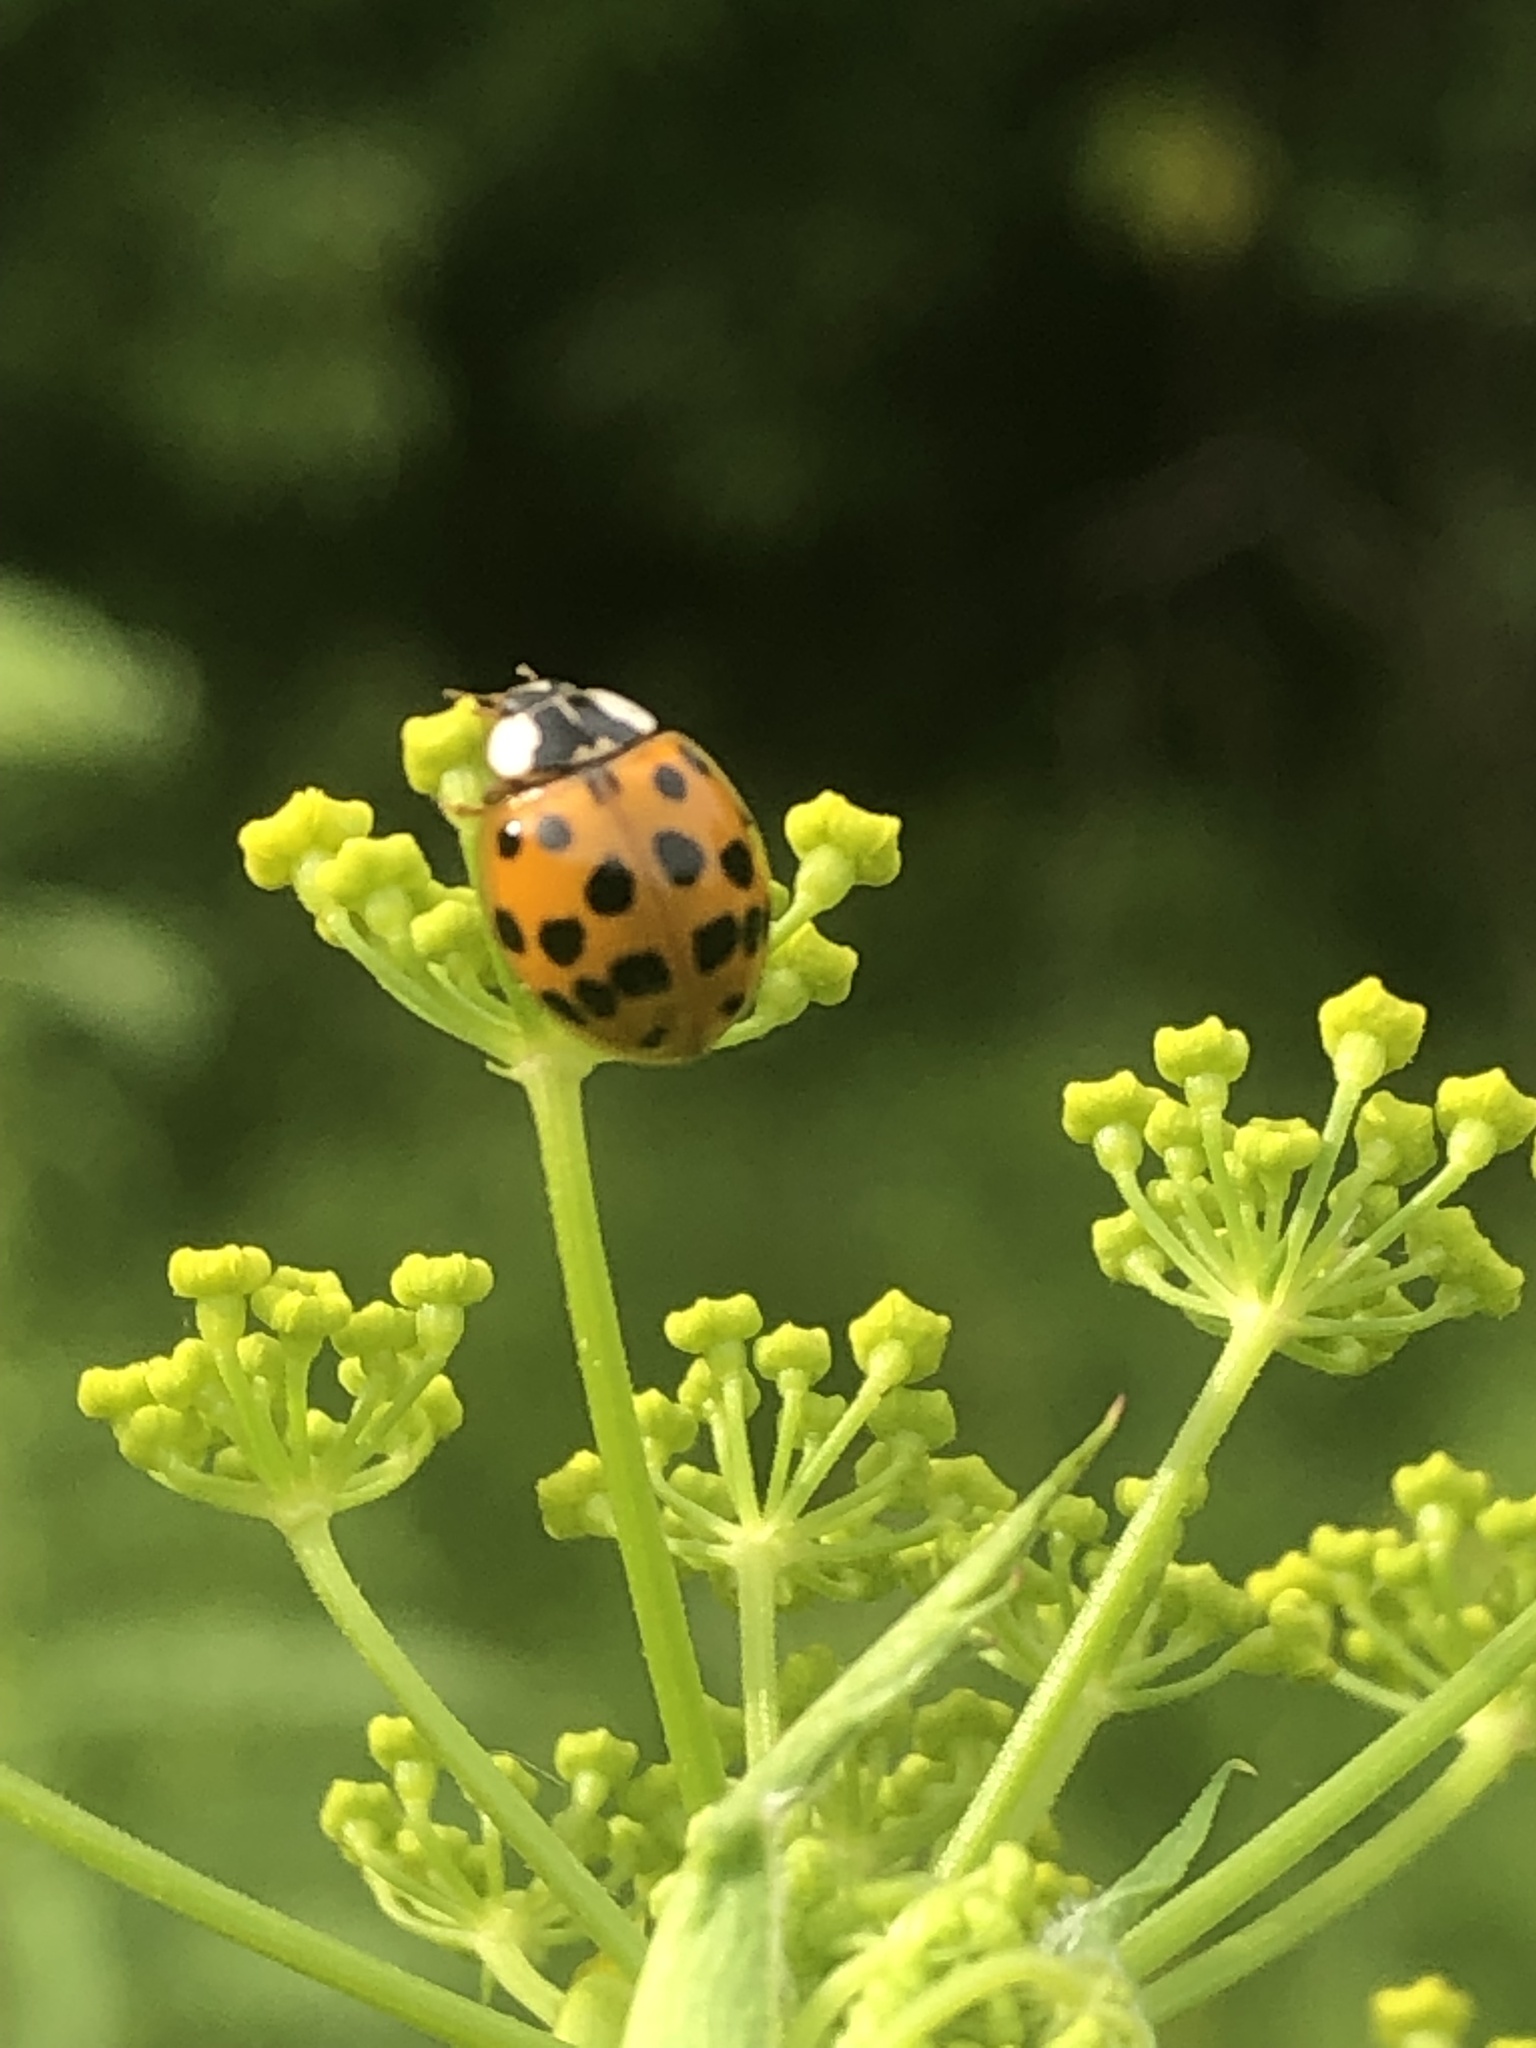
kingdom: Animalia
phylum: Arthropoda
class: Insecta
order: Coleoptera
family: Coccinellidae
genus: Harmonia
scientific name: Harmonia axyridis
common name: Harlequin ladybird
